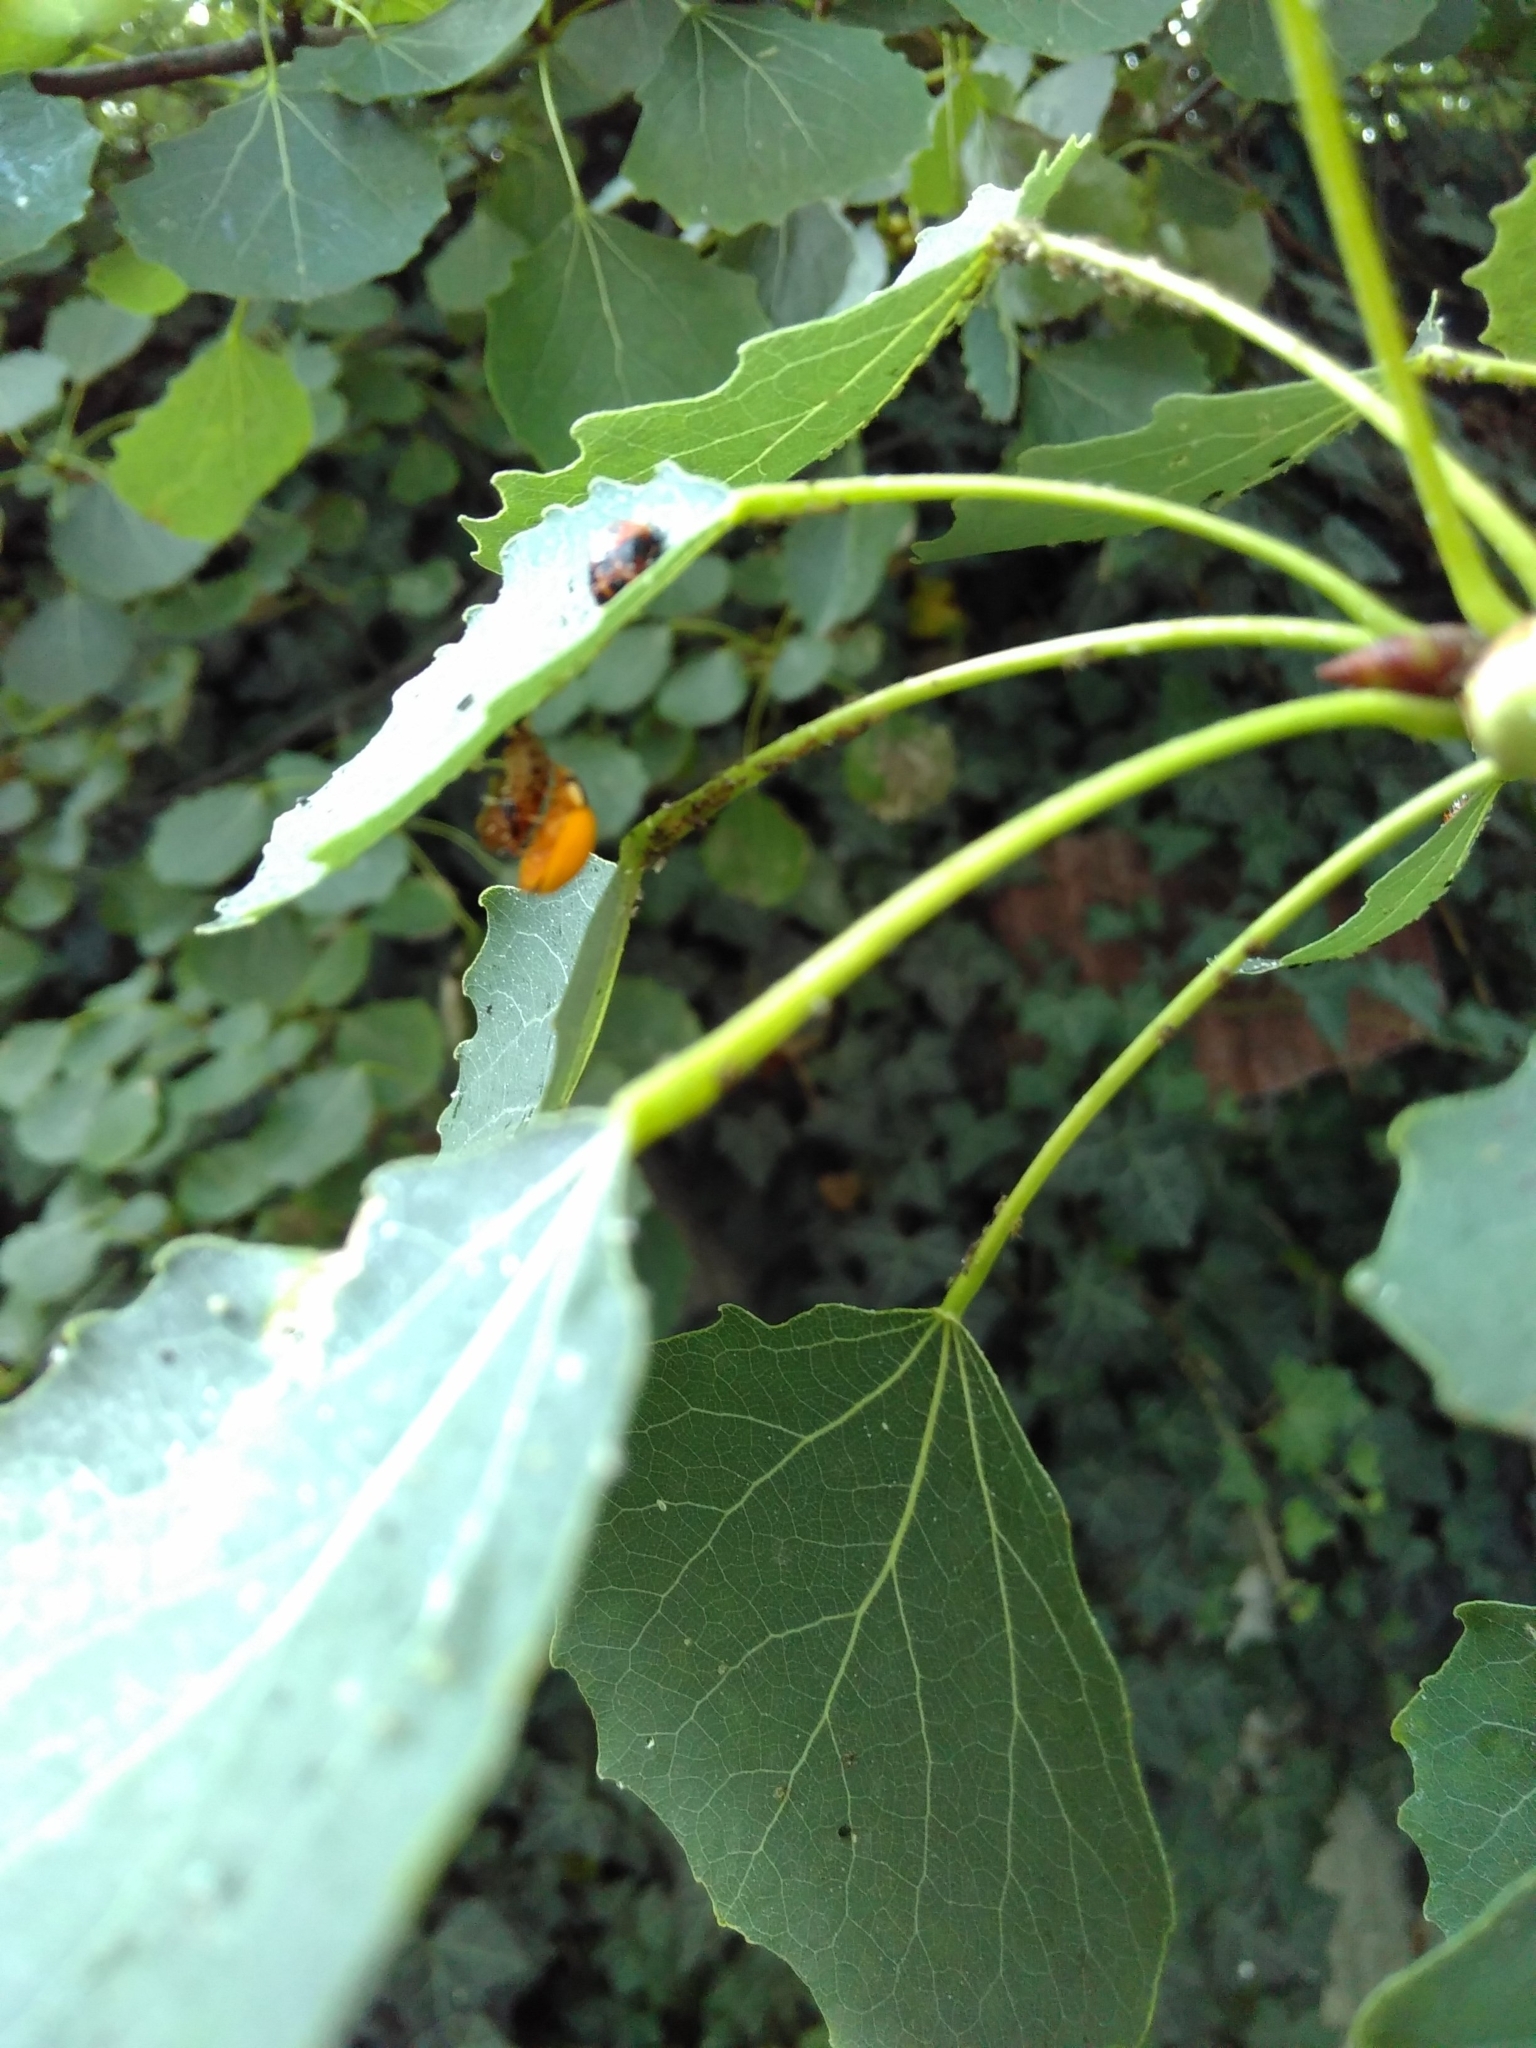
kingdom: Animalia
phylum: Arthropoda
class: Insecta
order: Coleoptera
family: Coccinellidae
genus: Harmonia
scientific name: Harmonia axyridis
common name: Harlequin ladybird
